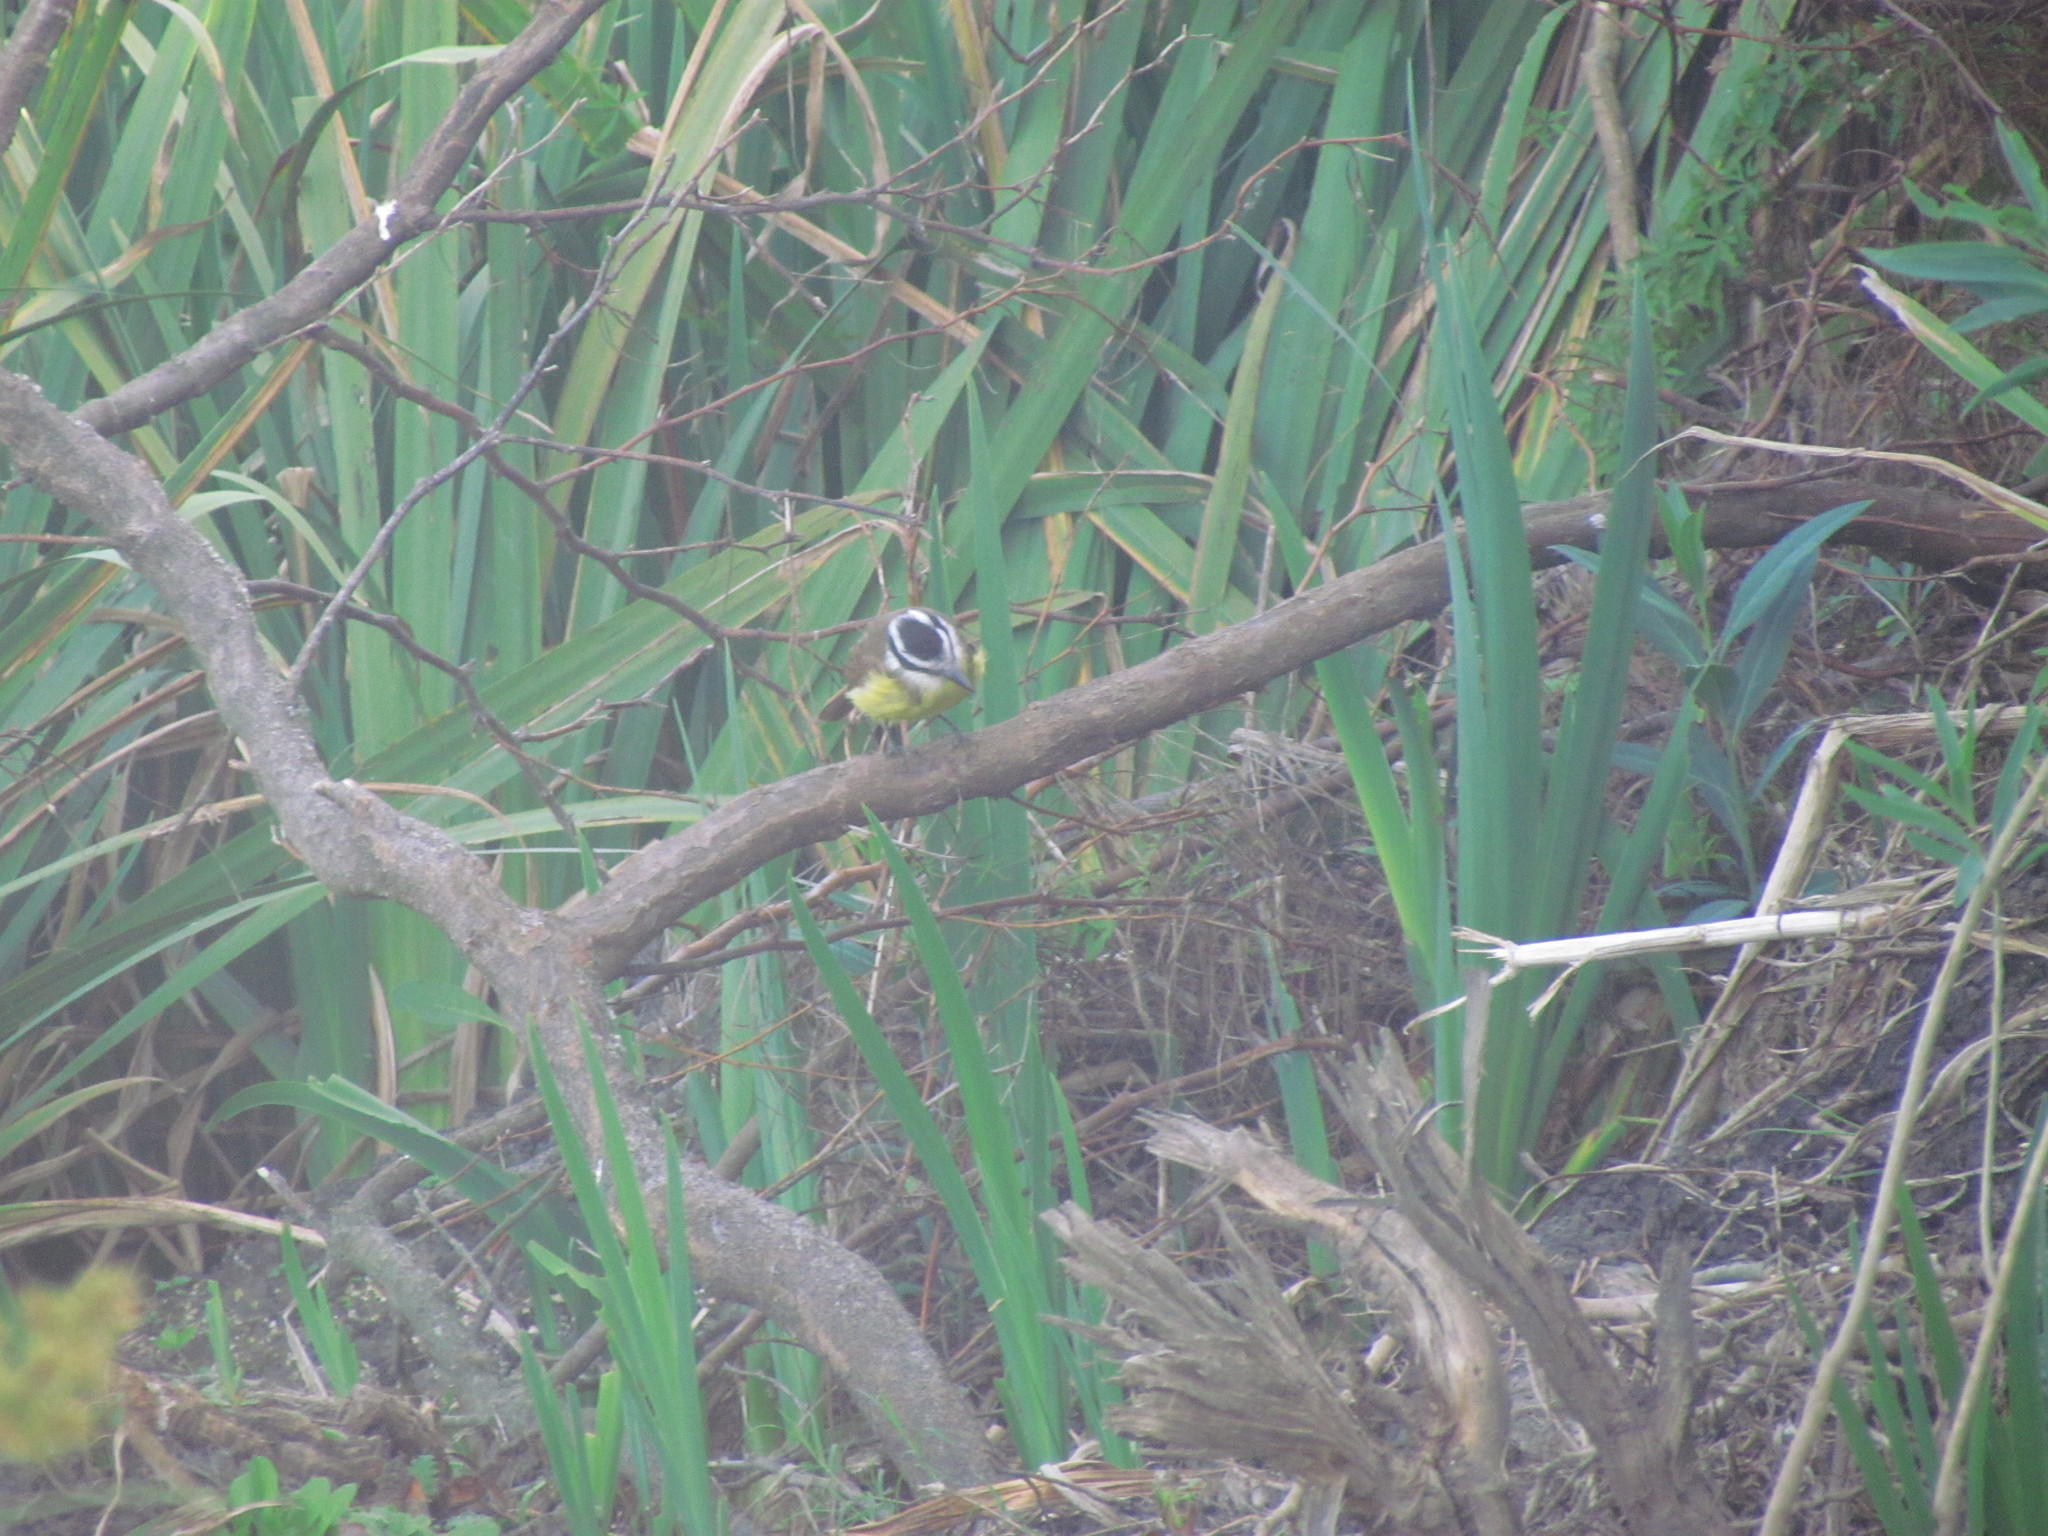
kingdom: Animalia
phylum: Chordata
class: Aves
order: Passeriformes
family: Tyrannidae
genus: Pitangus
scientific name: Pitangus sulphuratus
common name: Great kiskadee
